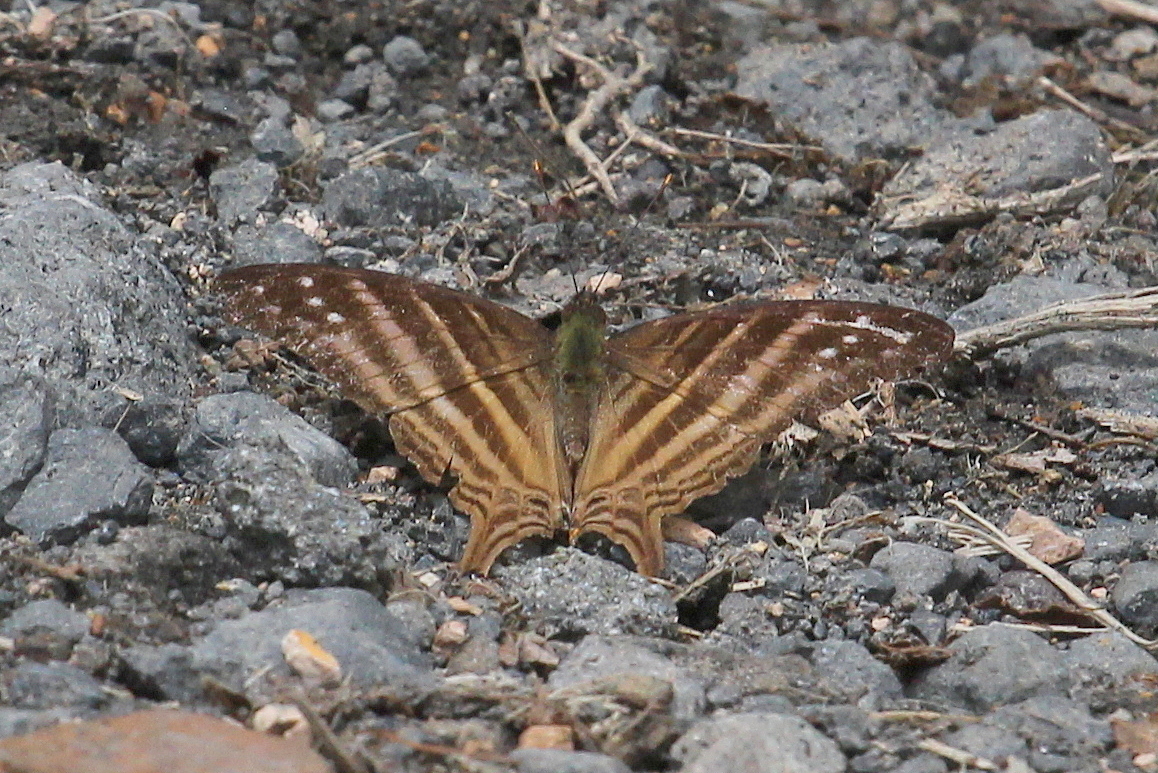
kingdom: Animalia
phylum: Arthropoda
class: Insecta
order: Lepidoptera
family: Nymphalidae
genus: Marpesia
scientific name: Marpesia chiron
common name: Many-banded daggerwing
